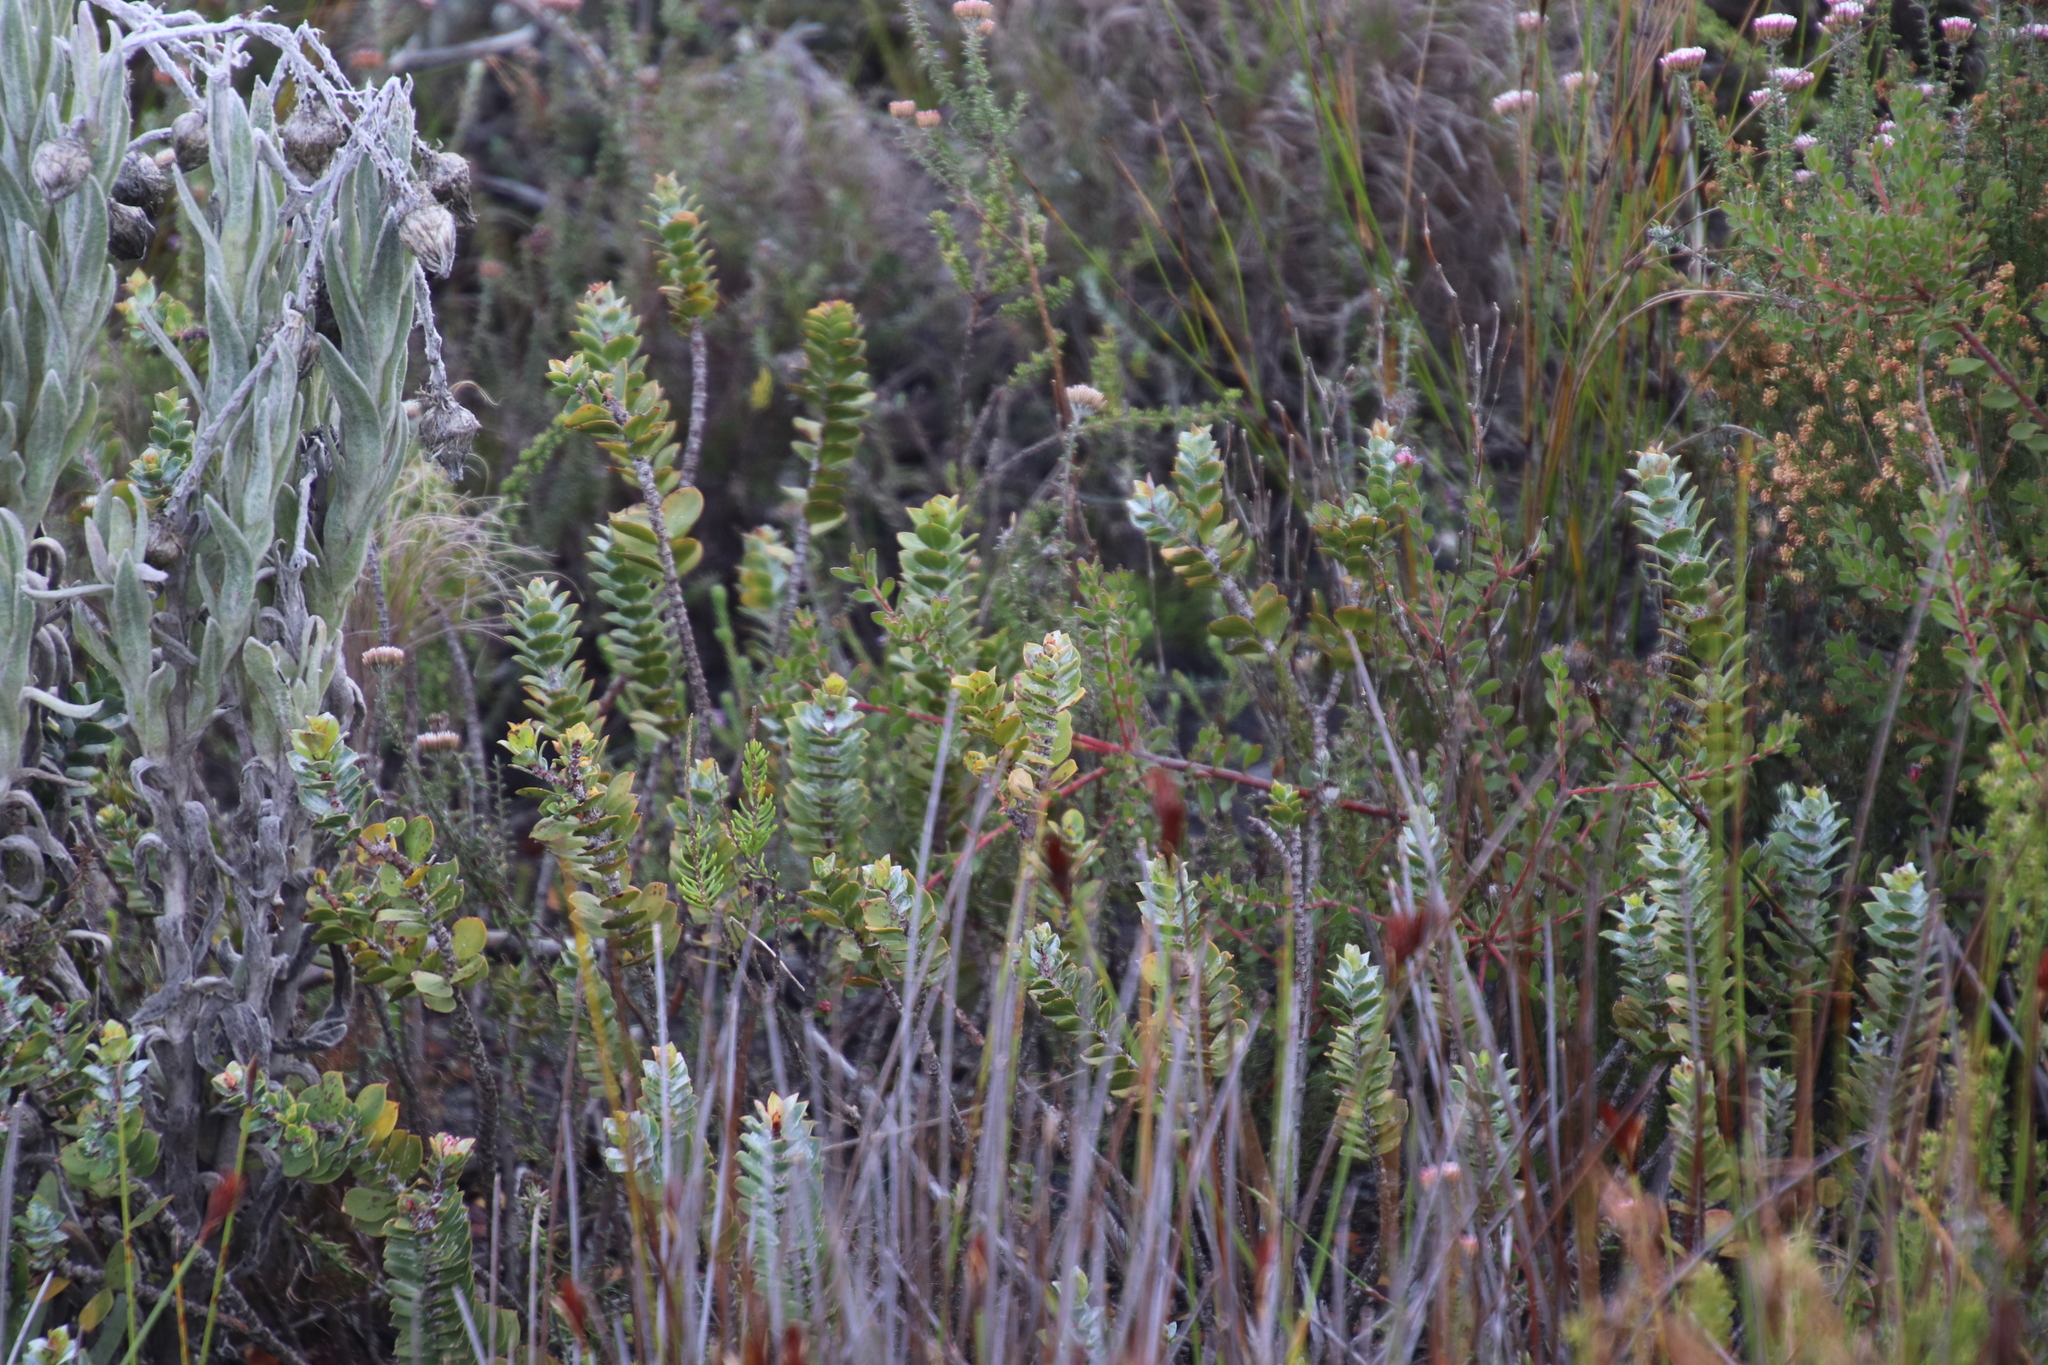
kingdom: Plantae
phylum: Tracheophyta
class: Magnoliopsida
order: Myrtales
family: Penaeaceae
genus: Saltera
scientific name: Saltera sarcocolla
